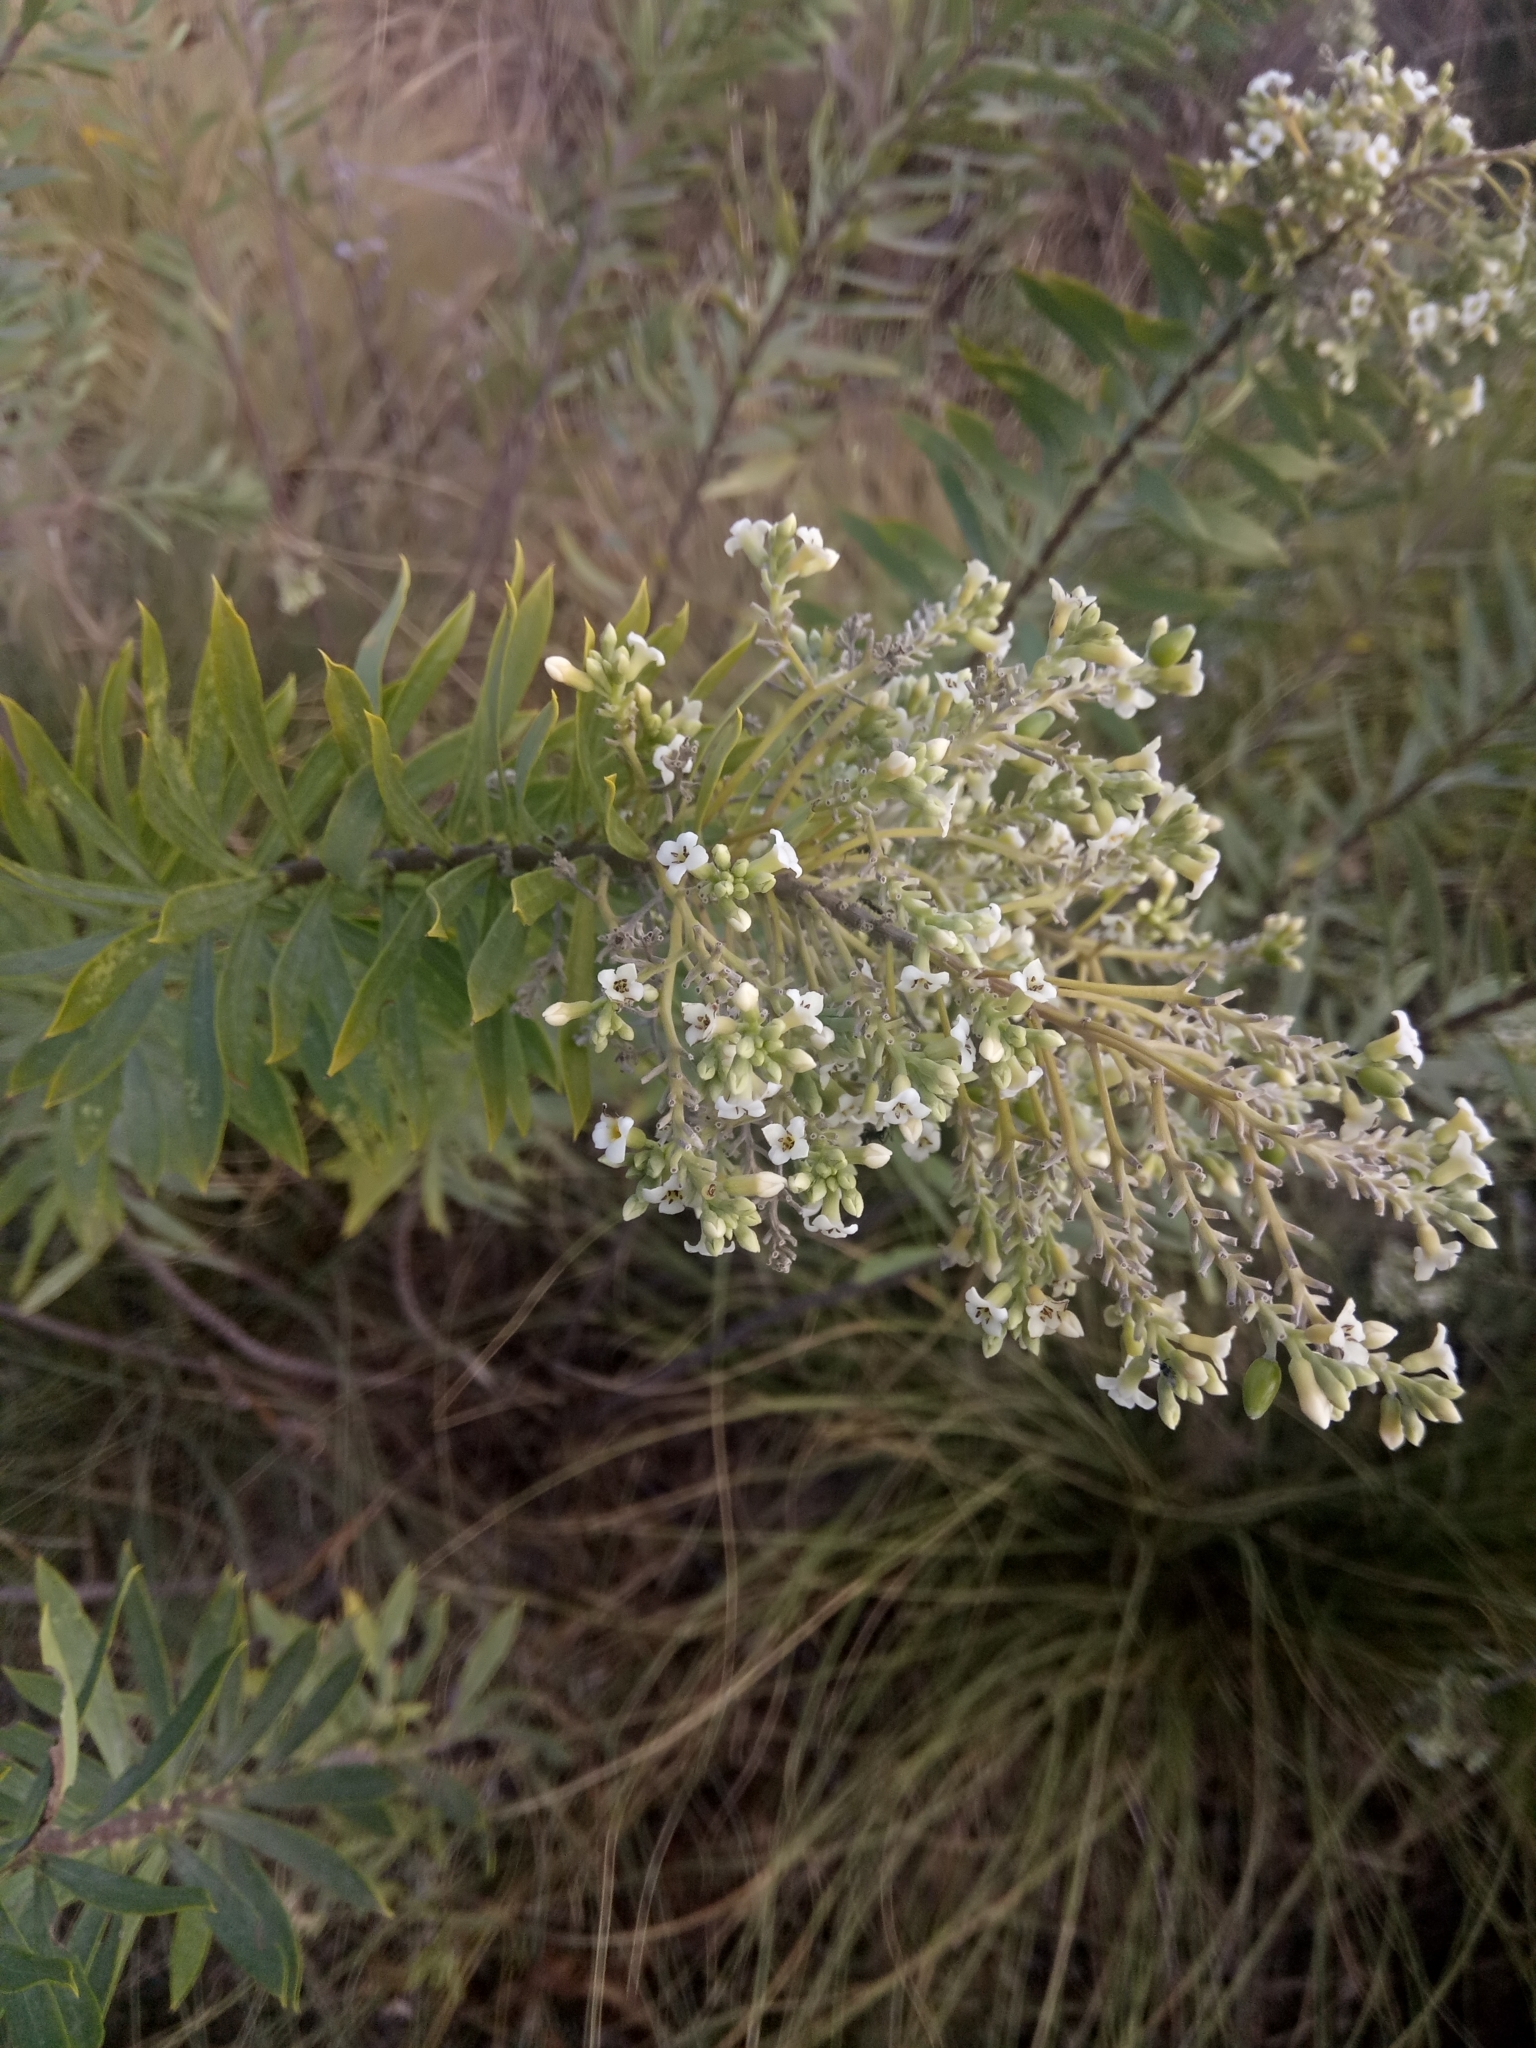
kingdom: Plantae
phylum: Tracheophyta
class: Magnoliopsida
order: Malvales
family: Thymelaeaceae
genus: Daphne
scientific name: Daphne gnidium
